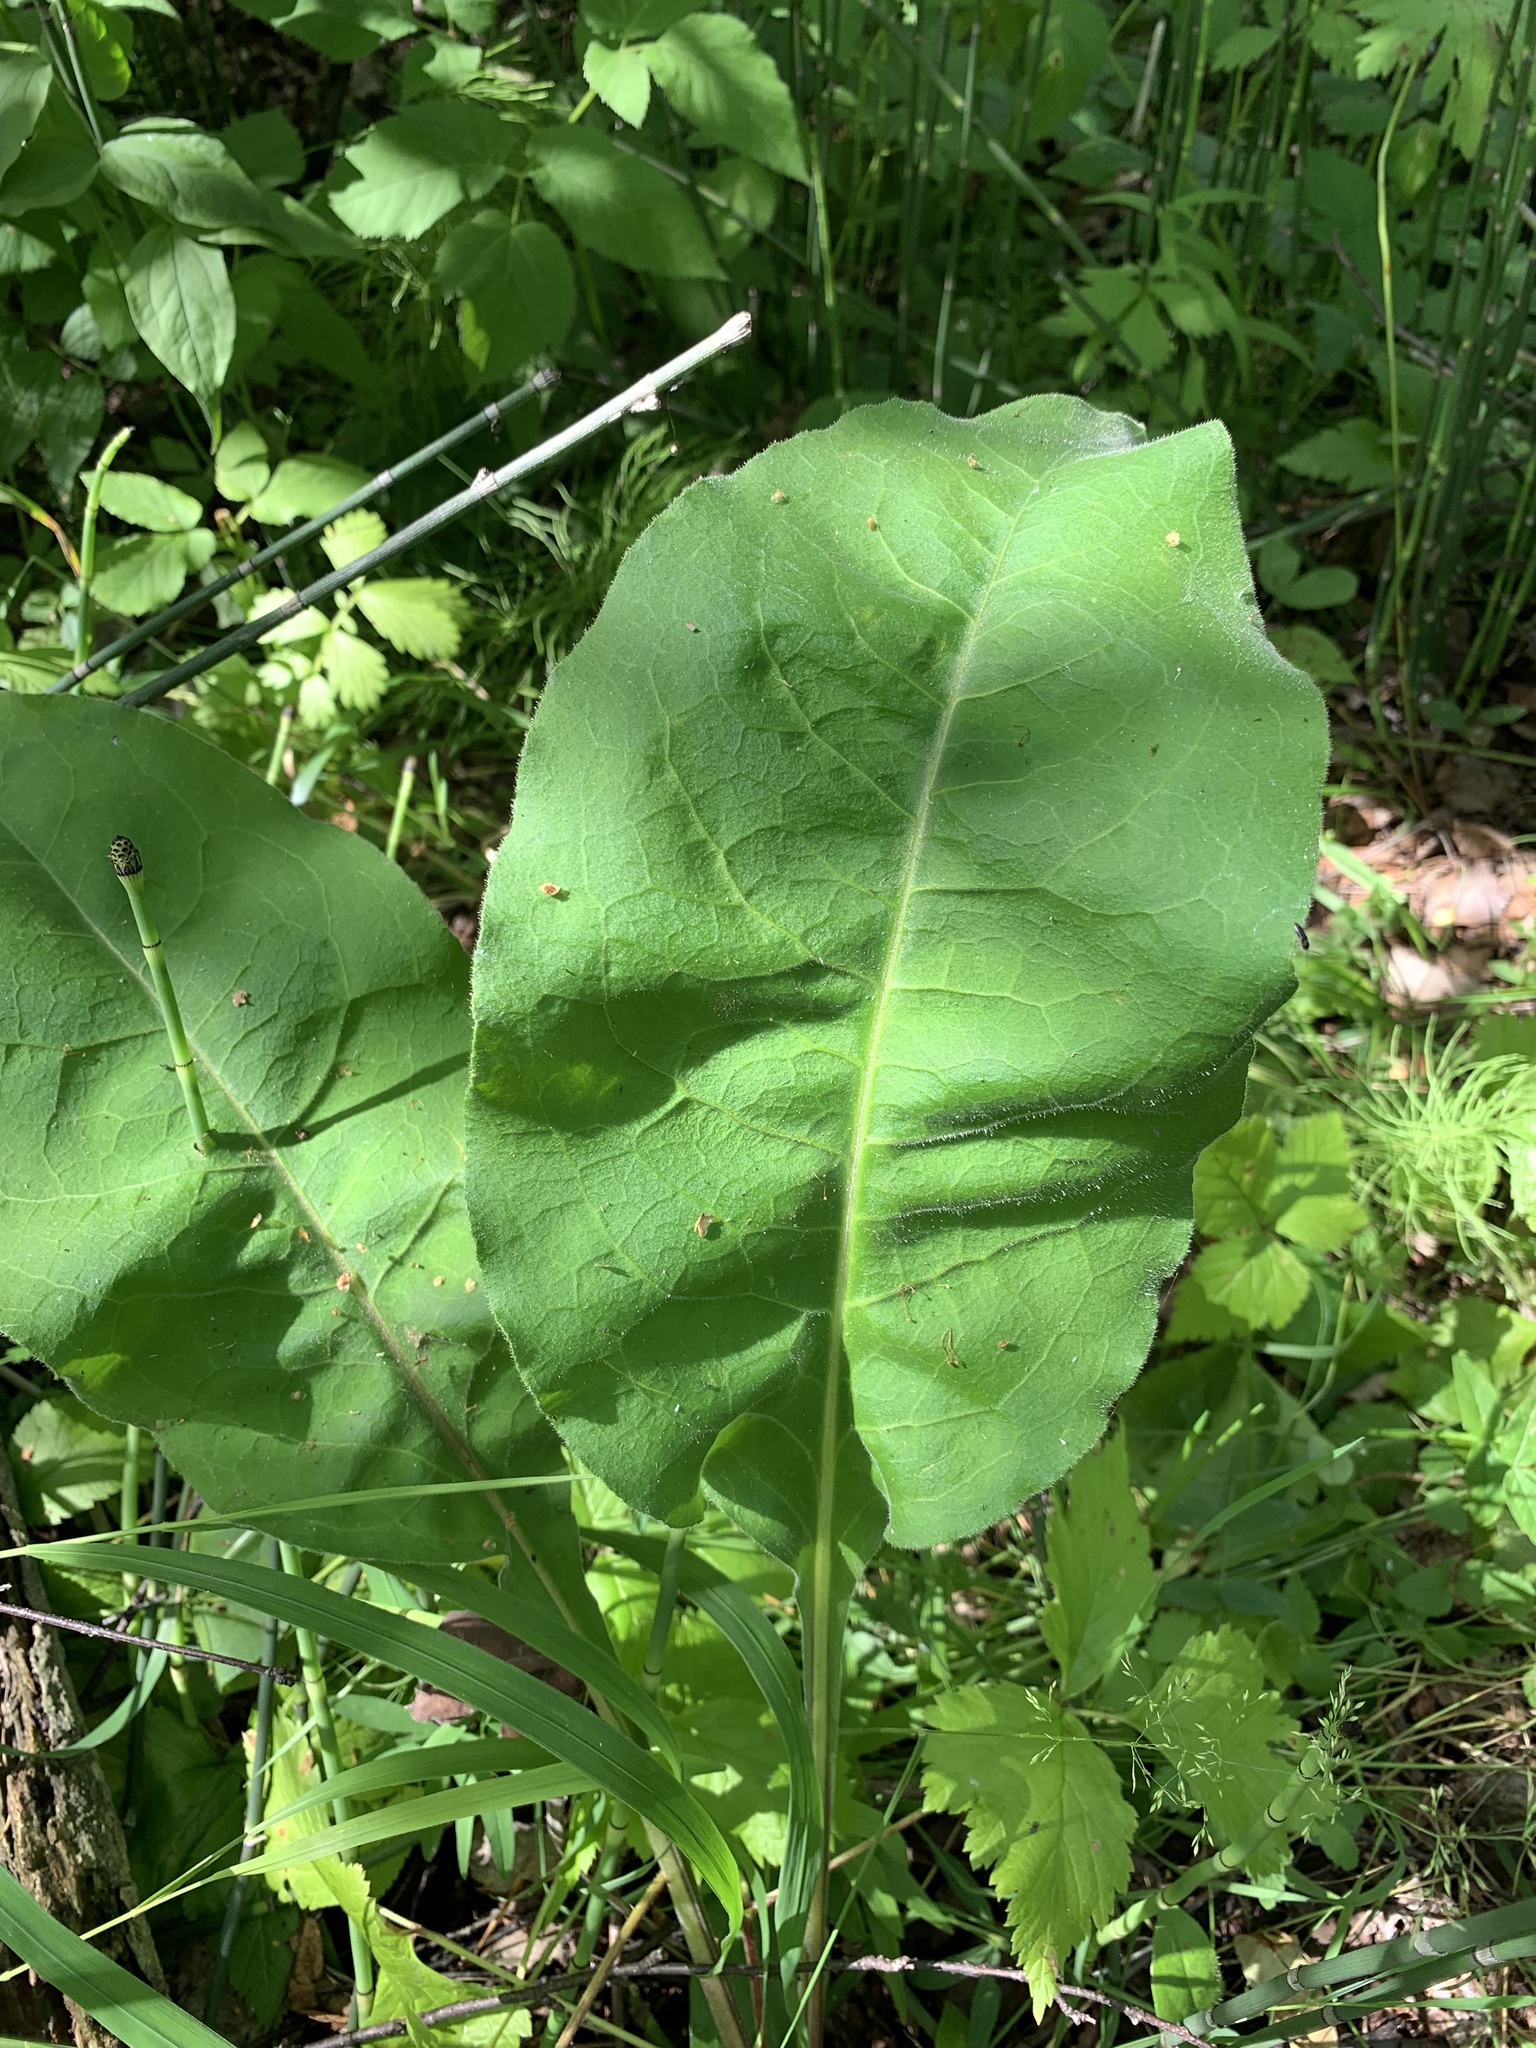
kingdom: Plantae
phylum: Tracheophyta
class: Magnoliopsida
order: Boraginales
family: Boraginaceae
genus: Pulmonaria
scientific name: Pulmonaria mollis
